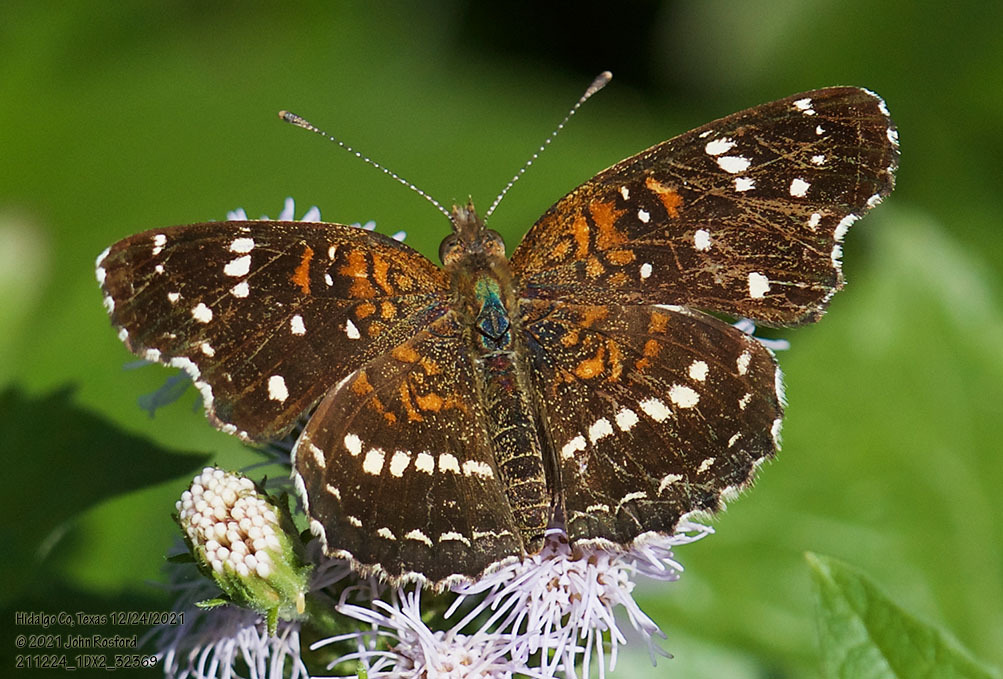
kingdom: Animalia
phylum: Arthropoda
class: Insecta
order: Lepidoptera
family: Nymphalidae
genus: Anthanassa
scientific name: Anthanassa texana
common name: Texan crescent
